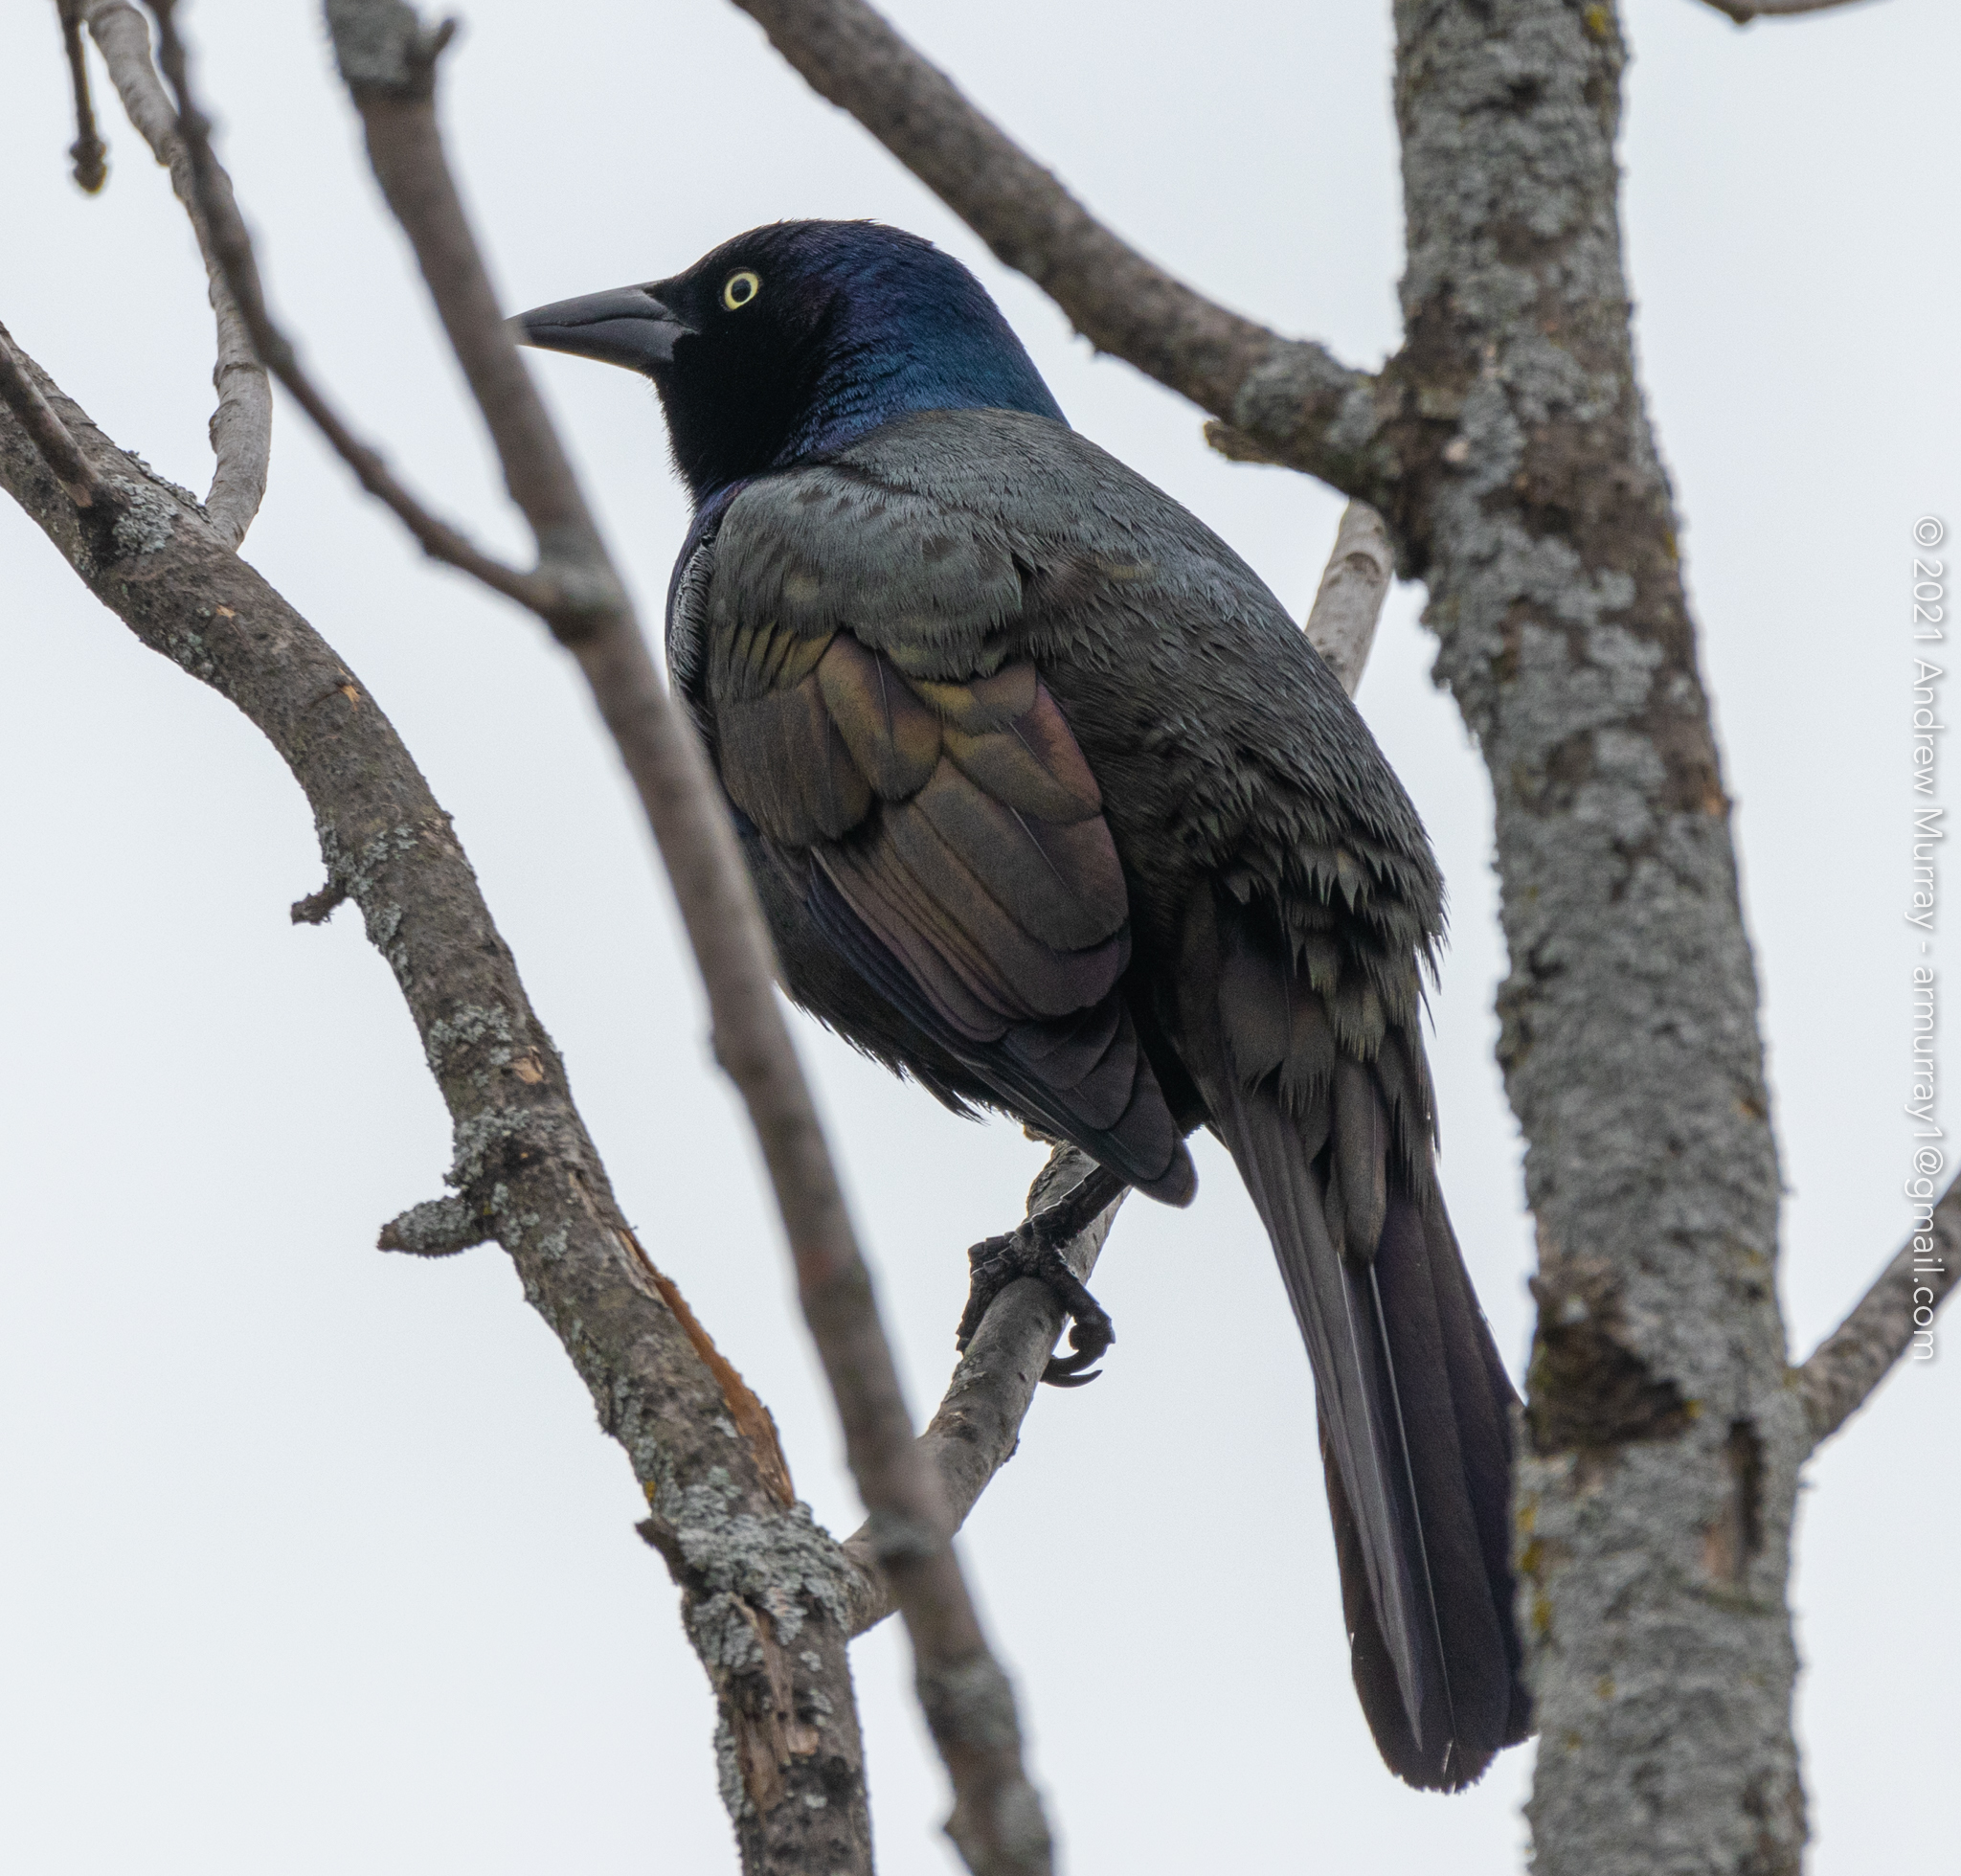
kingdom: Animalia
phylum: Chordata
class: Aves
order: Passeriformes
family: Icteridae
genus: Quiscalus
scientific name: Quiscalus quiscula
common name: Common grackle
